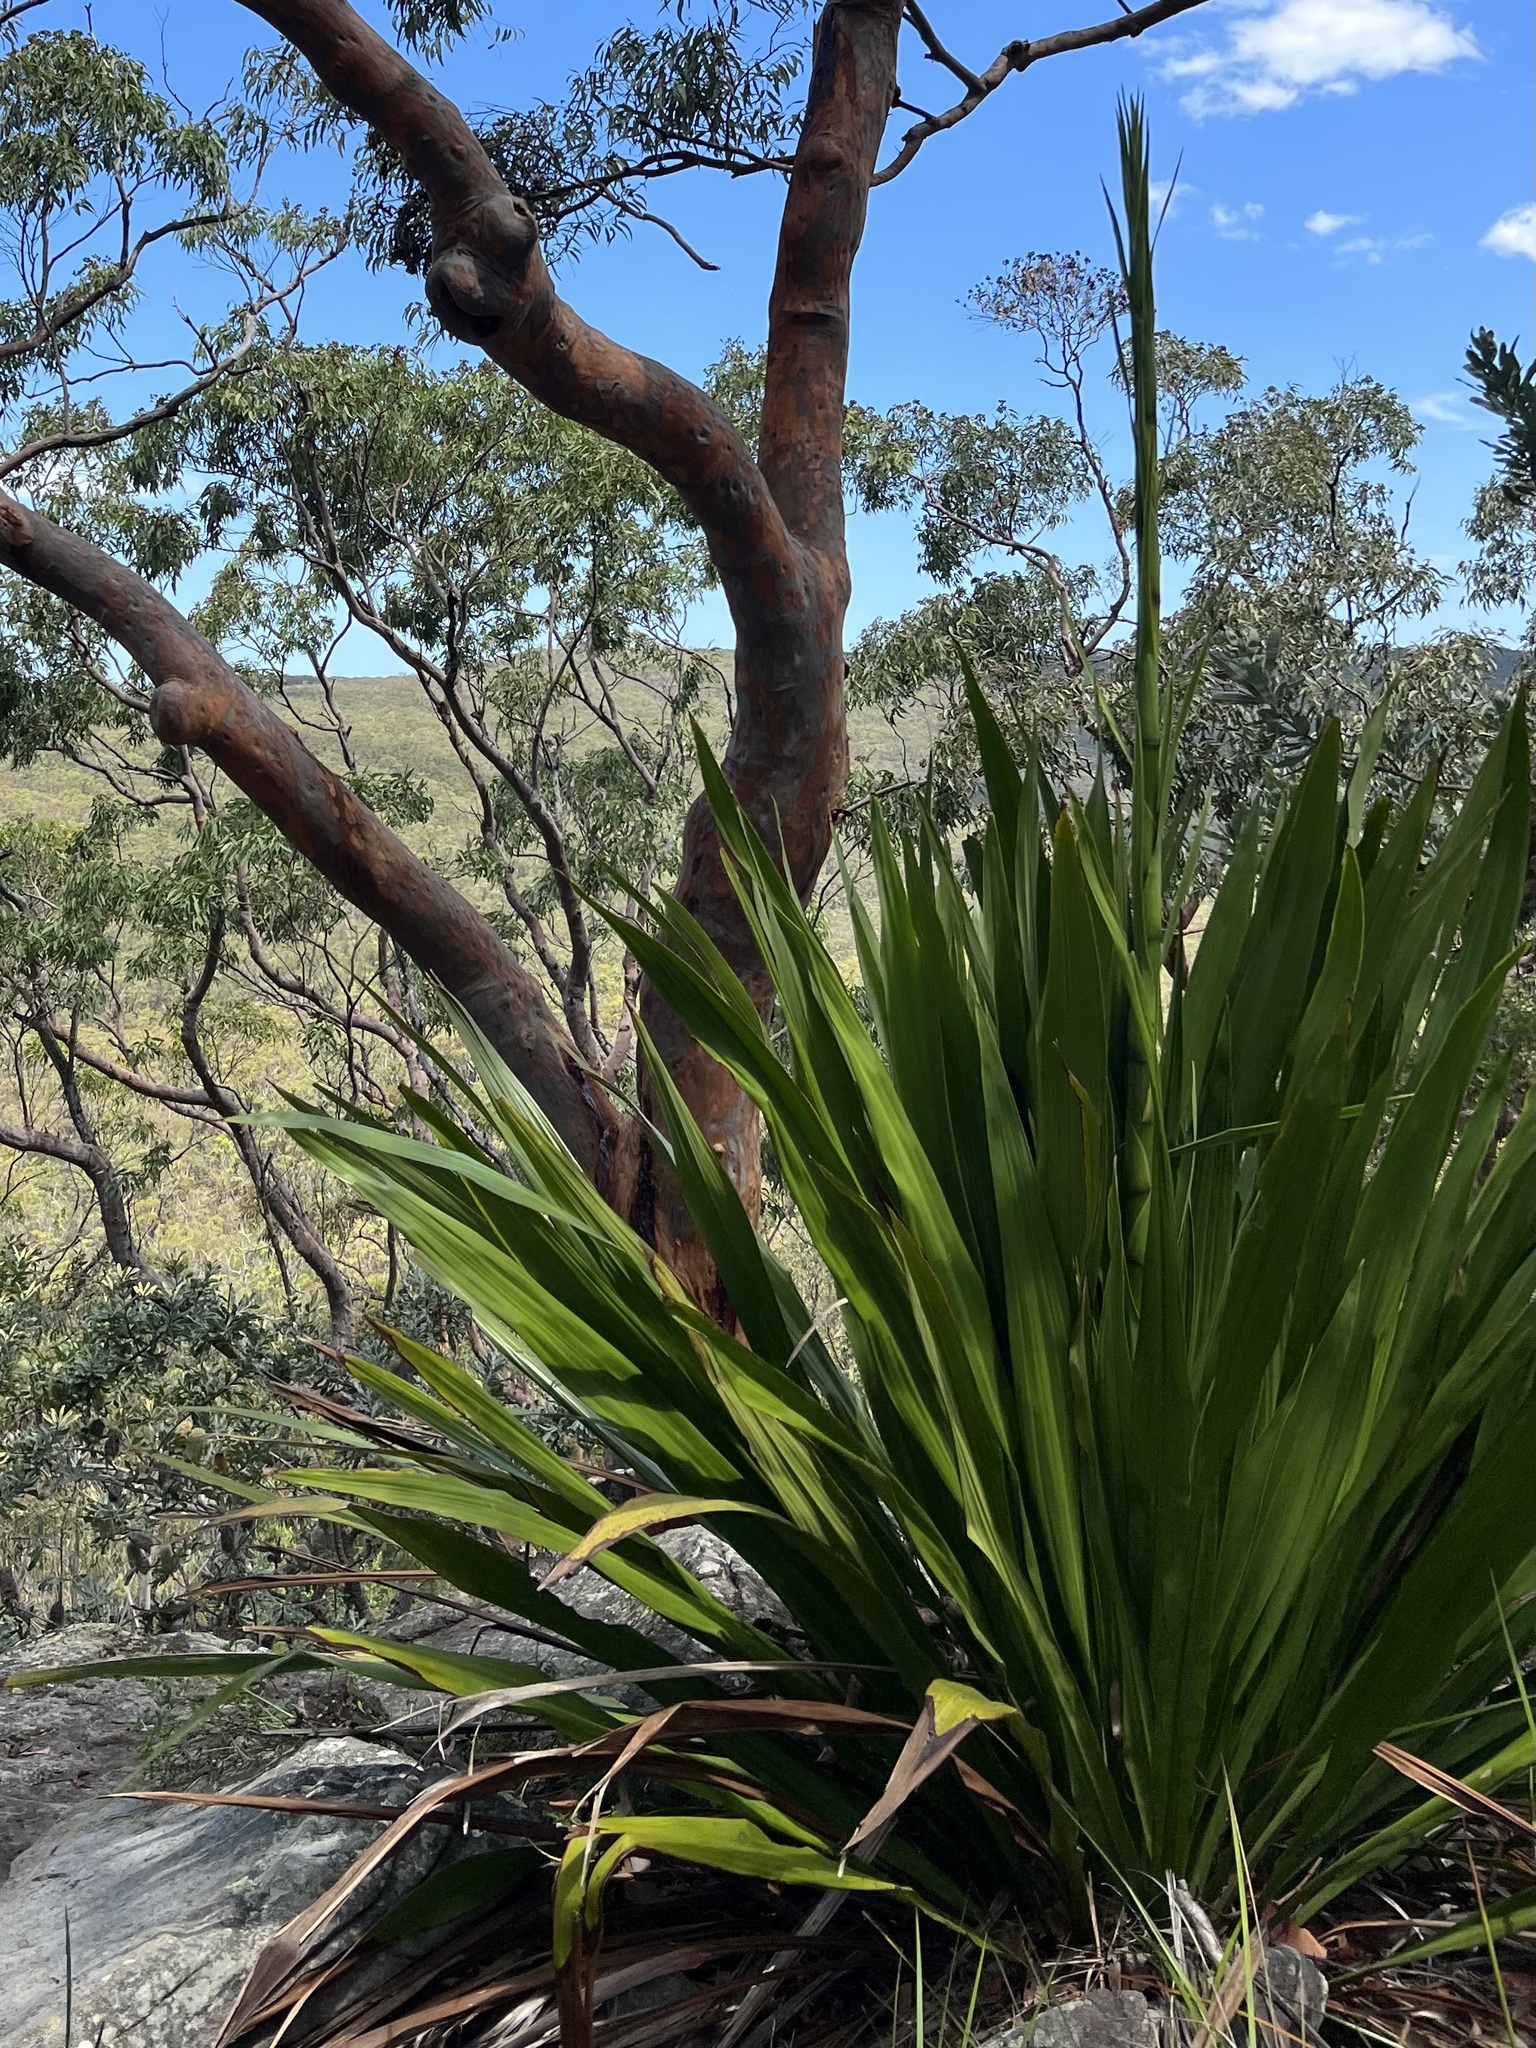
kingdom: Plantae
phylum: Tracheophyta
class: Liliopsida
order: Asparagales
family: Doryanthaceae
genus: Doryanthes
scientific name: Doryanthes excelsa
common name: Giant-lily
